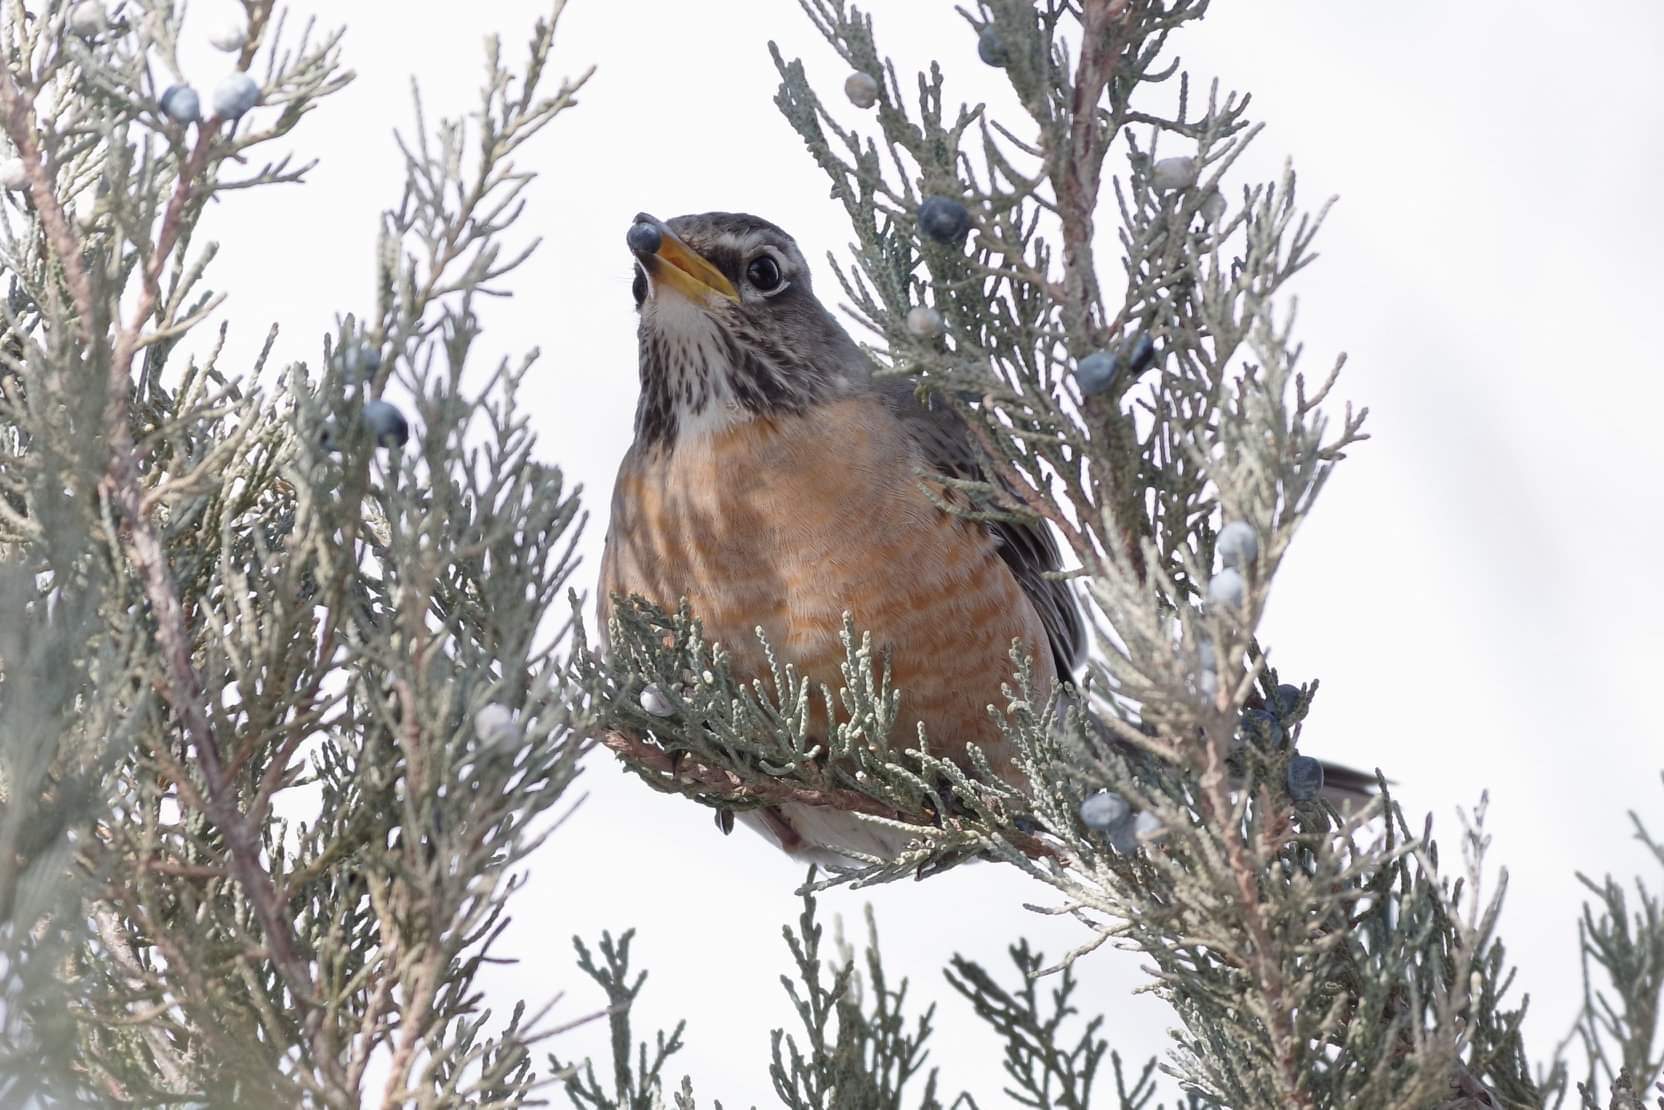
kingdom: Animalia
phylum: Chordata
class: Aves
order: Passeriformes
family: Turdidae
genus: Turdus
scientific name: Turdus migratorius
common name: American robin
